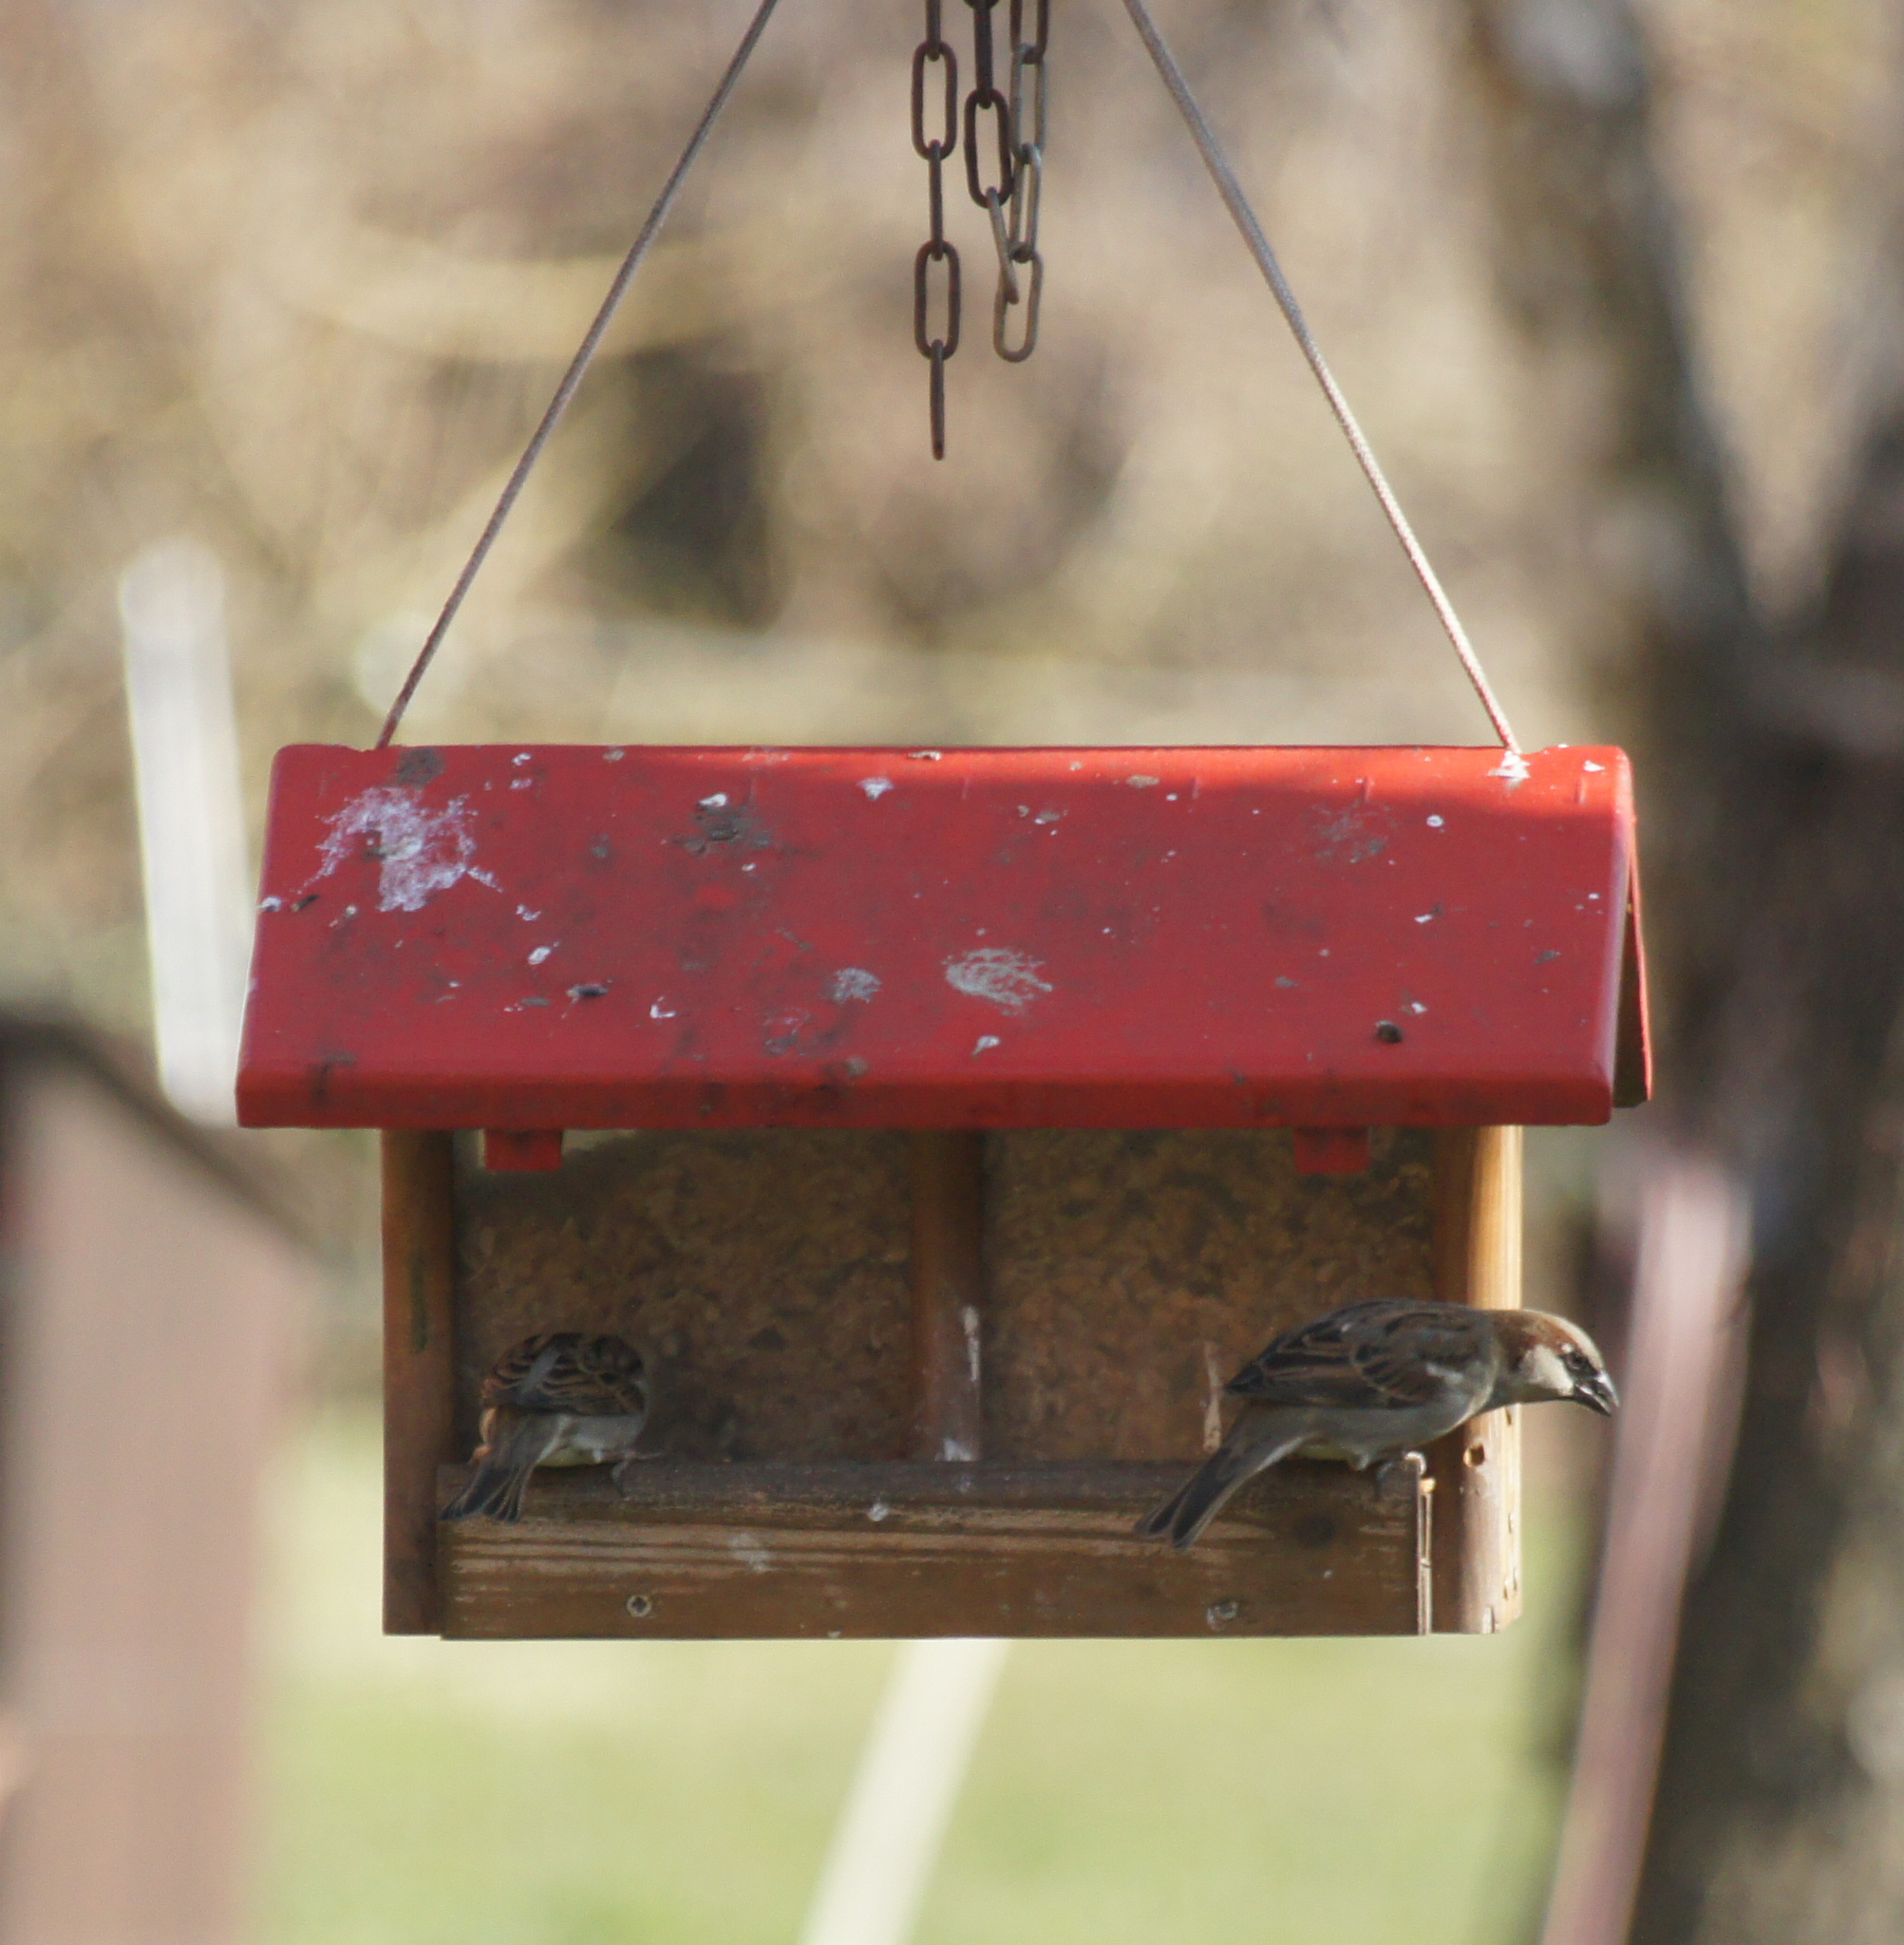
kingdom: Animalia
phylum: Chordata
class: Aves
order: Passeriformes
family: Passeridae
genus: Passer
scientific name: Passer domesticus
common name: House sparrow
